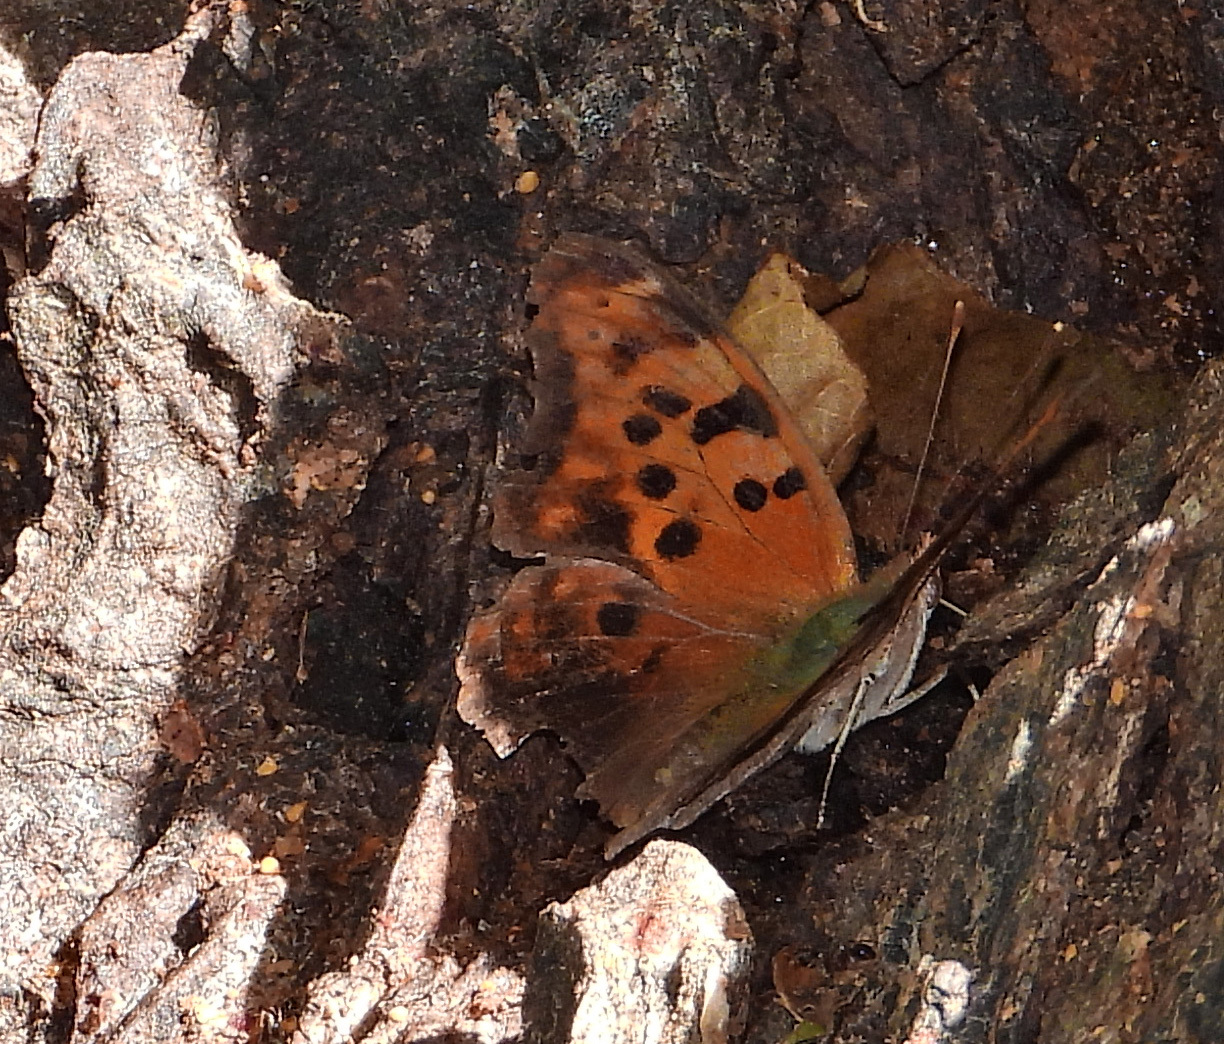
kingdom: Animalia
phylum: Arthropoda
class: Insecta
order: Lepidoptera
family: Nymphalidae
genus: Polygonia
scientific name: Polygonia interrogationis
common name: Question mark
